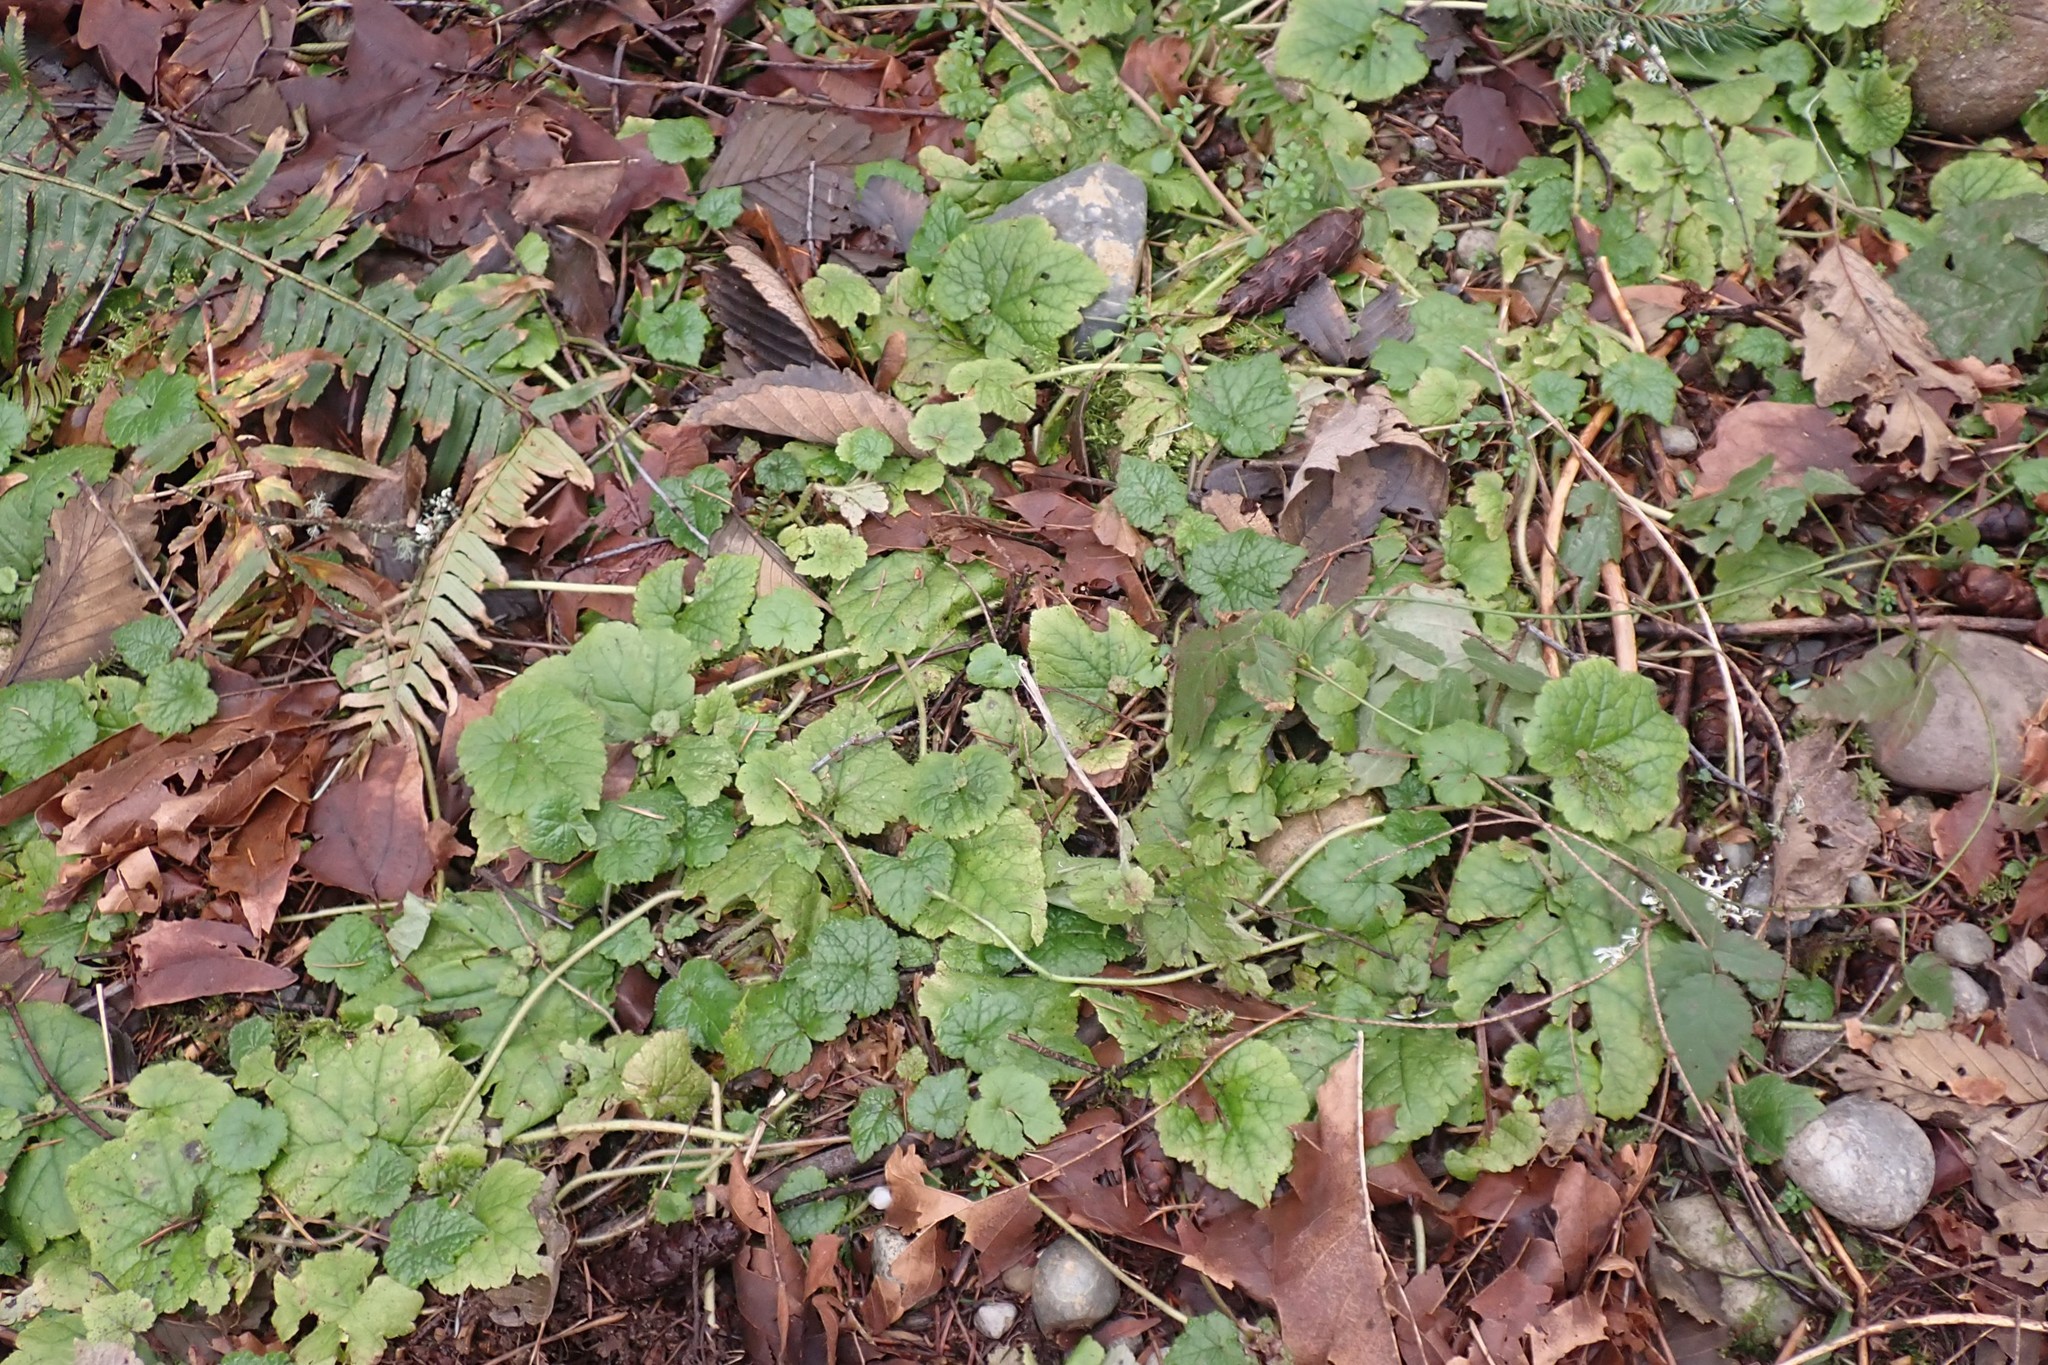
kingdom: Plantae
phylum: Tracheophyta
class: Magnoliopsida
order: Saxifragales
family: Saxifragaceae
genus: Tolmiea
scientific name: Tolmiea menziesii
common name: Pick-a-back-plant
